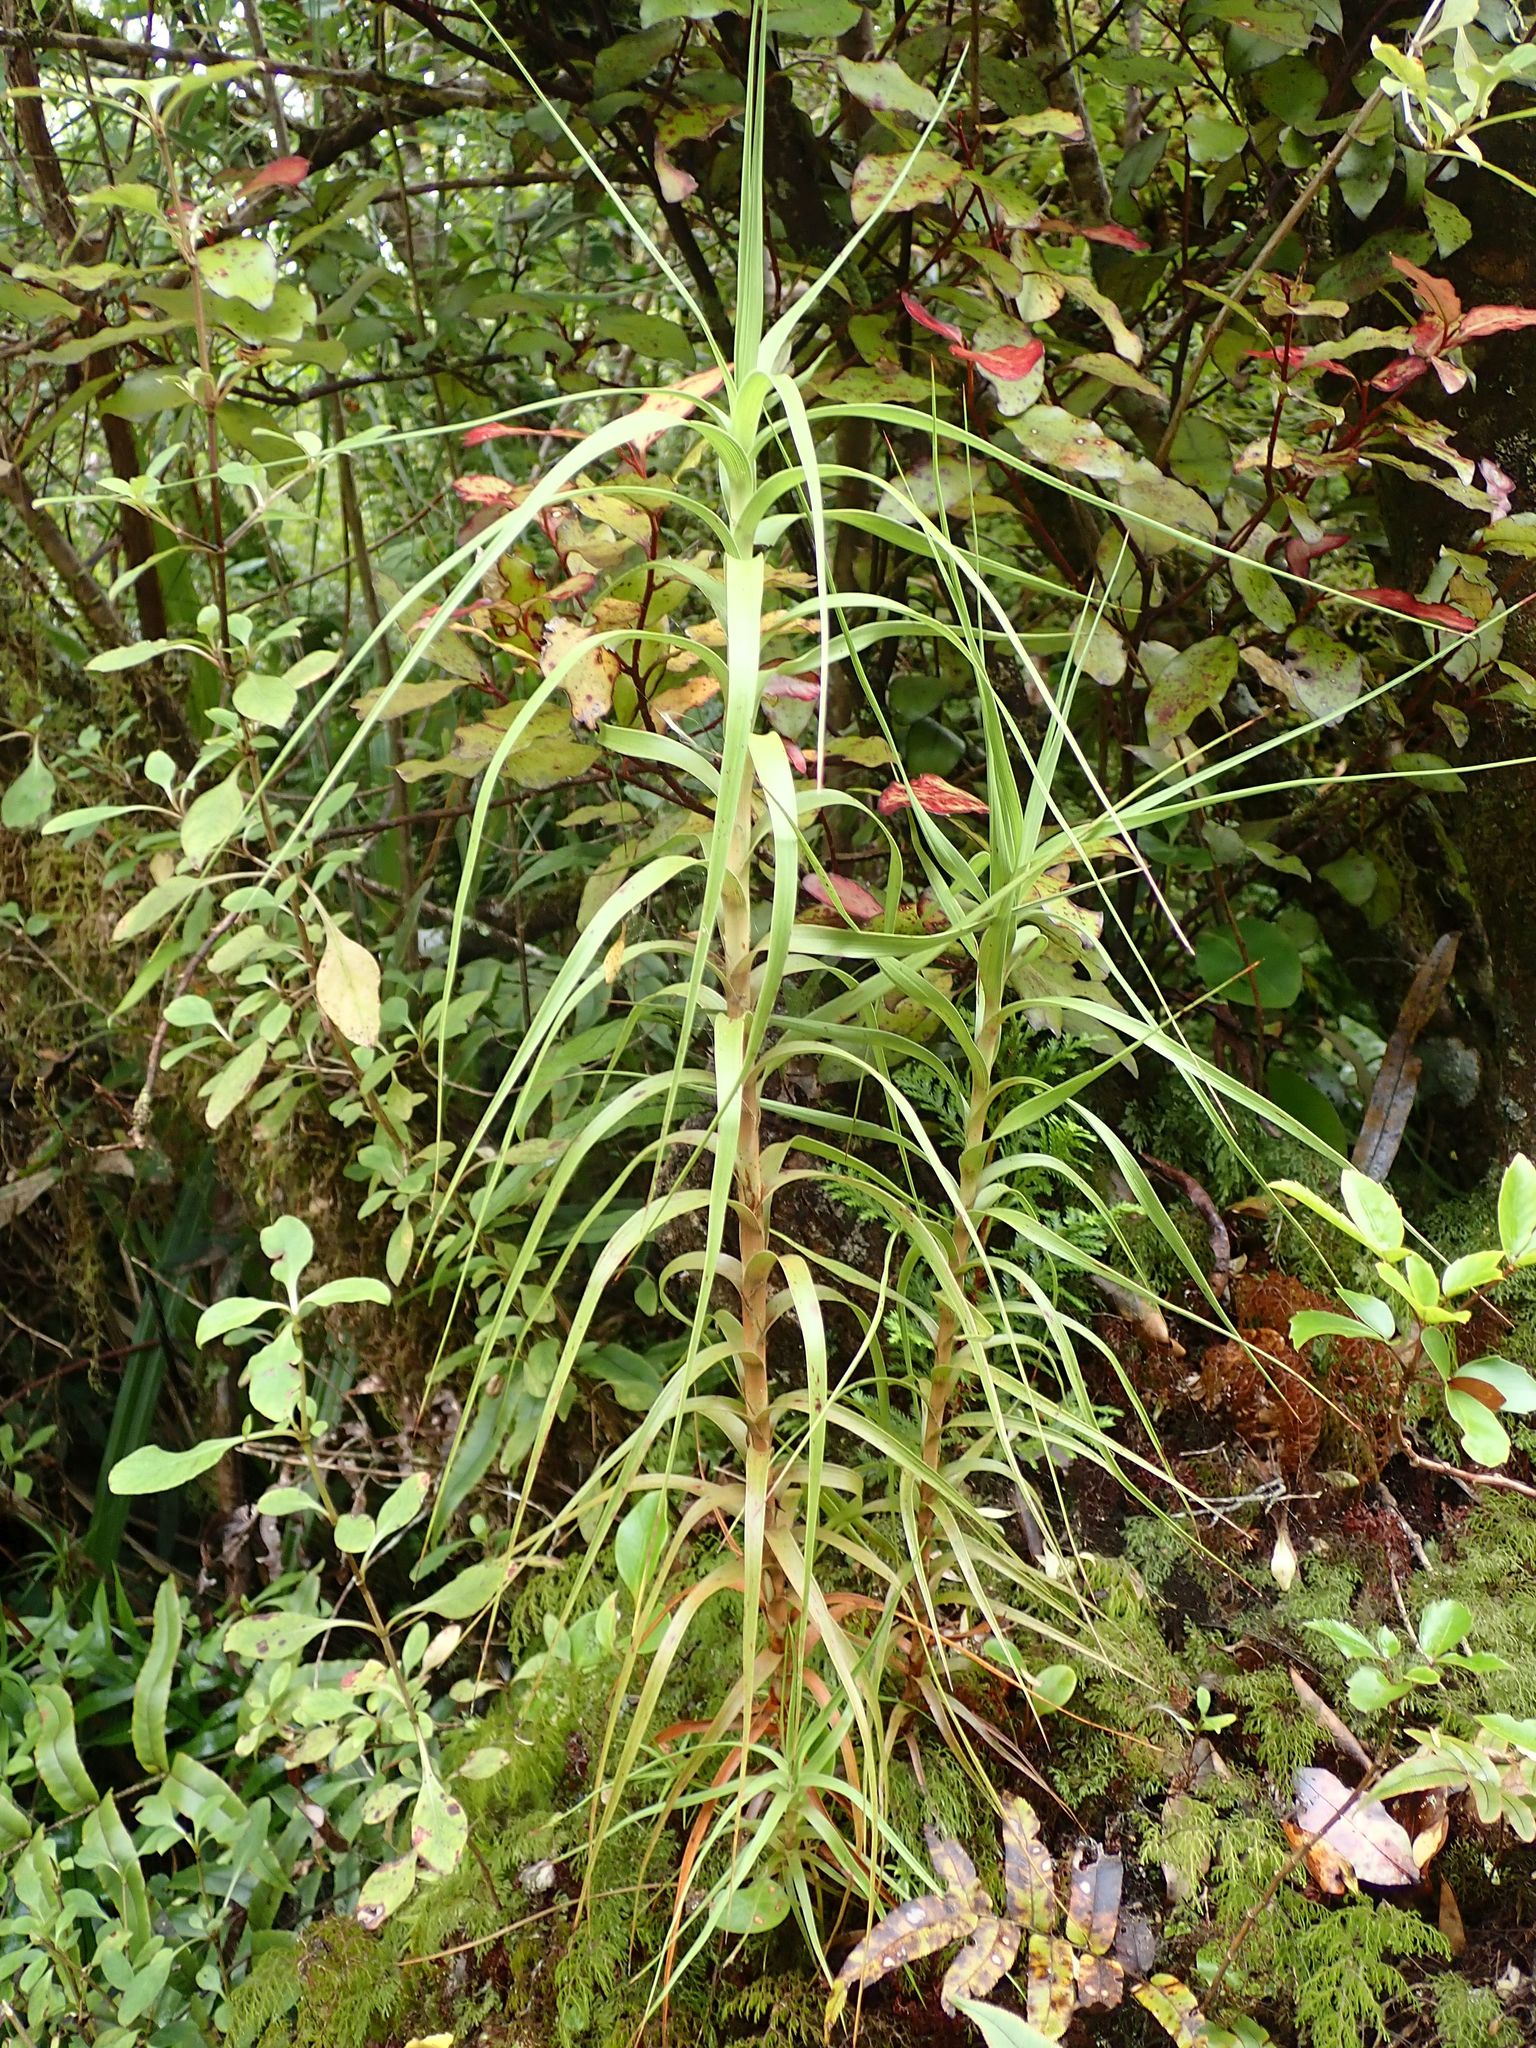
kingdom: Plantae
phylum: Tracheophyta
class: Magnoliopsida
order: Ericales
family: Ericaceae
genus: Dracophyllum
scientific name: Dracophyllum longifolium
